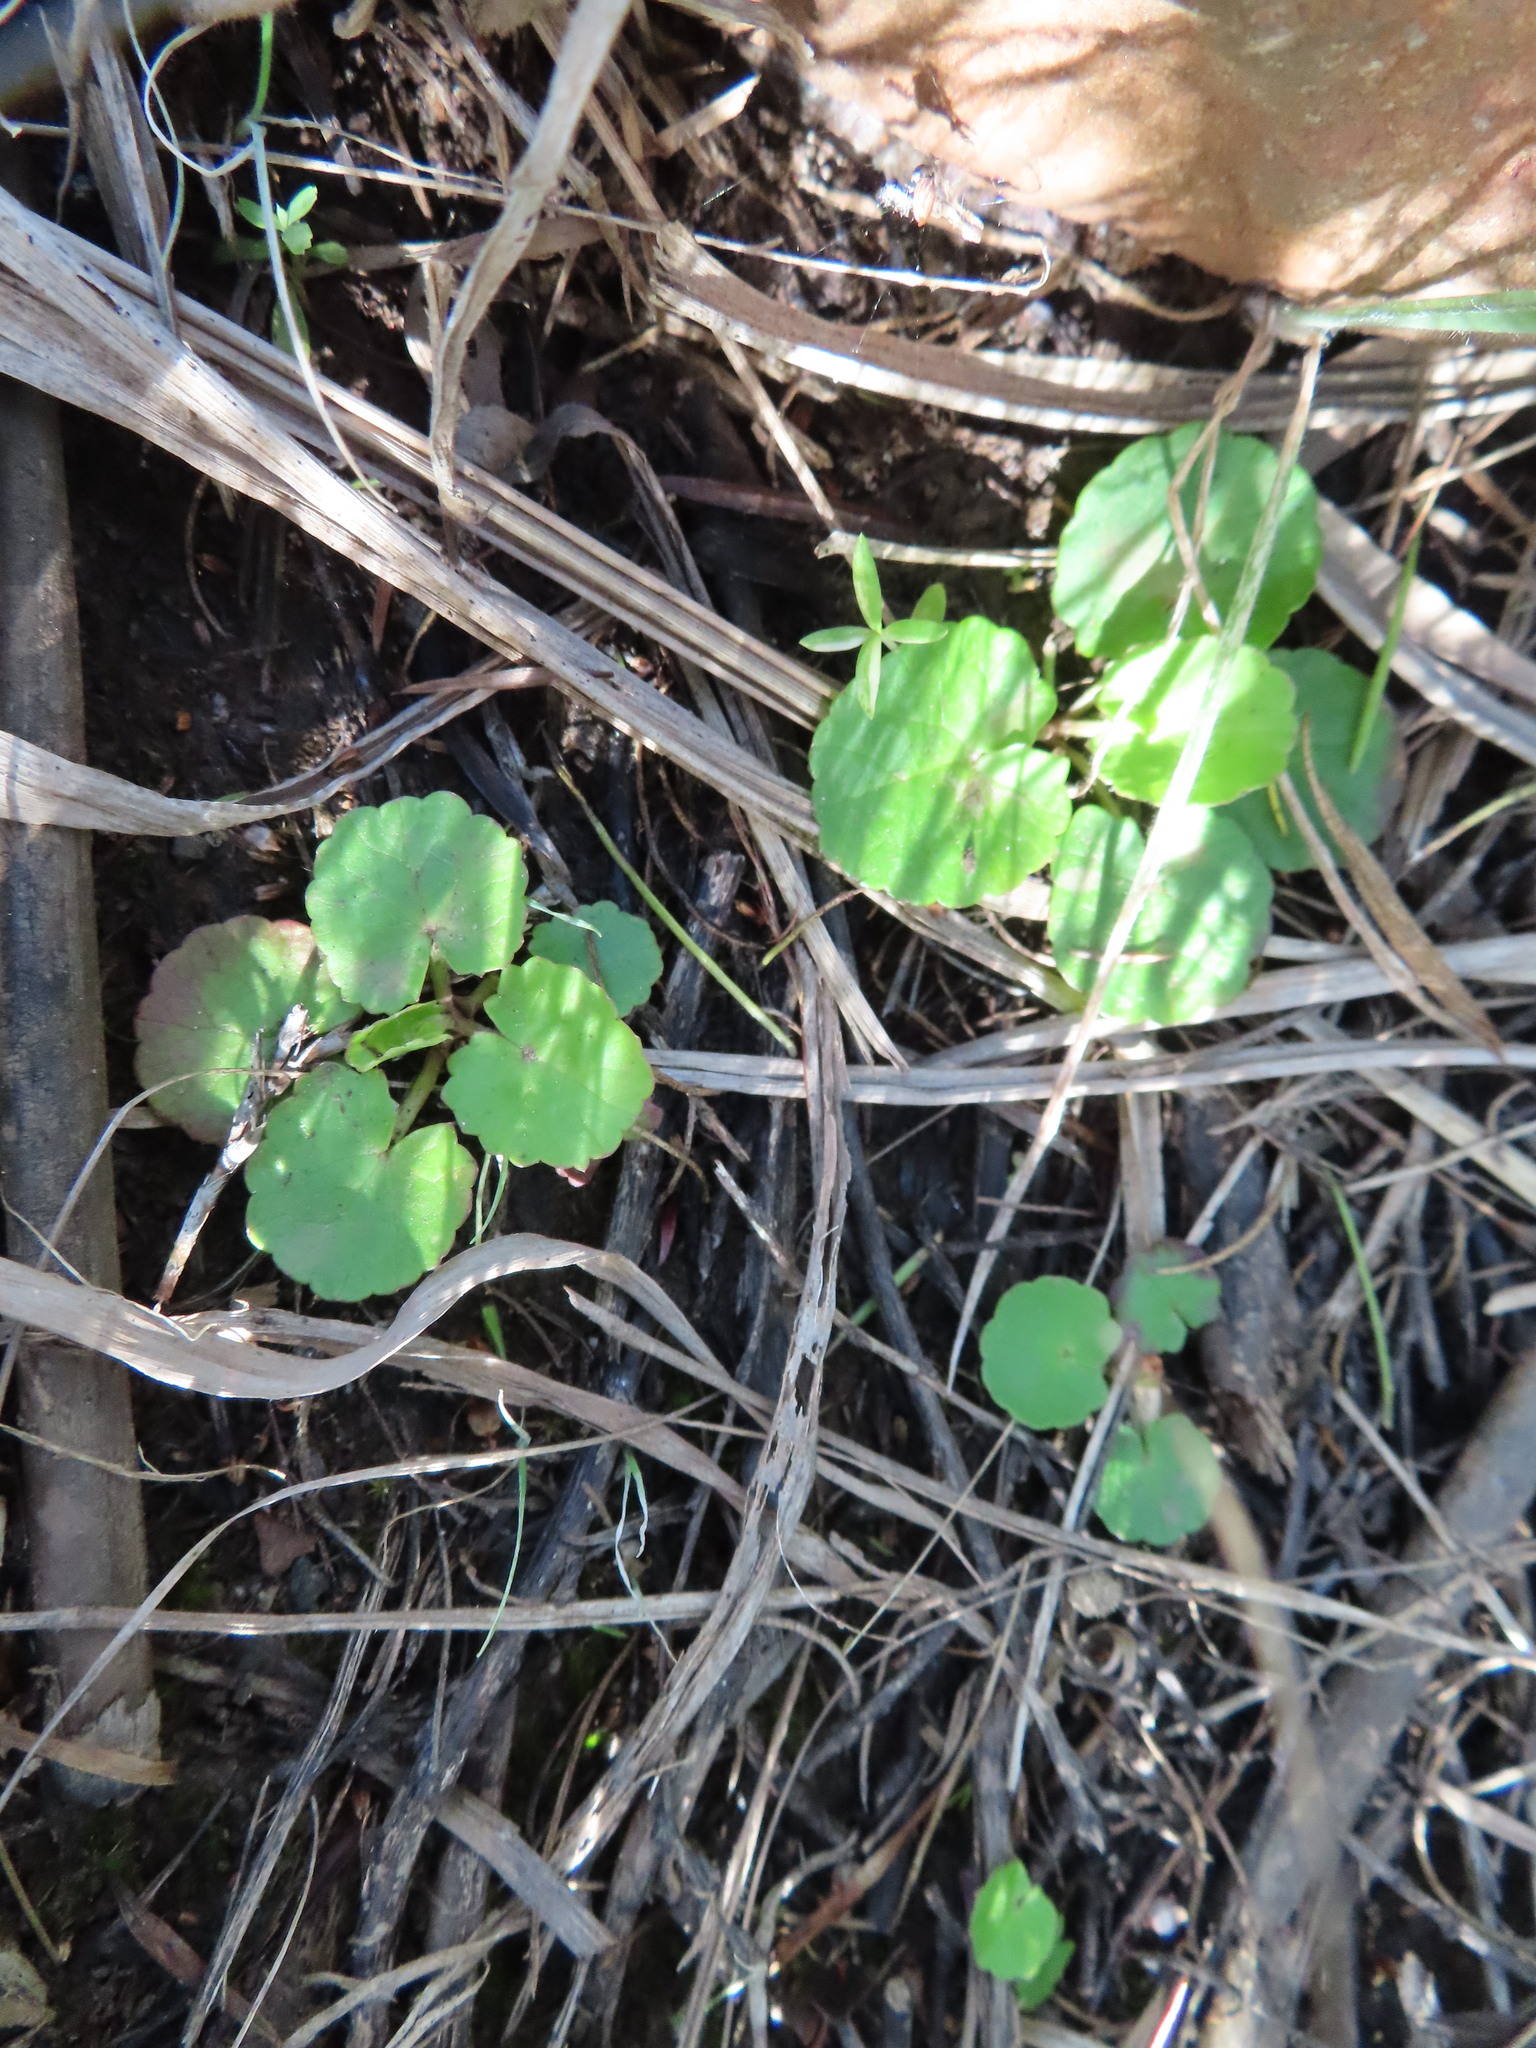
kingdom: Plantae
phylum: Tracheophyta
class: Magnoliopsida
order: Apiales
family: Apiaceae
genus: Centella
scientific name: Centella asiatica
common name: Spadeleaf
